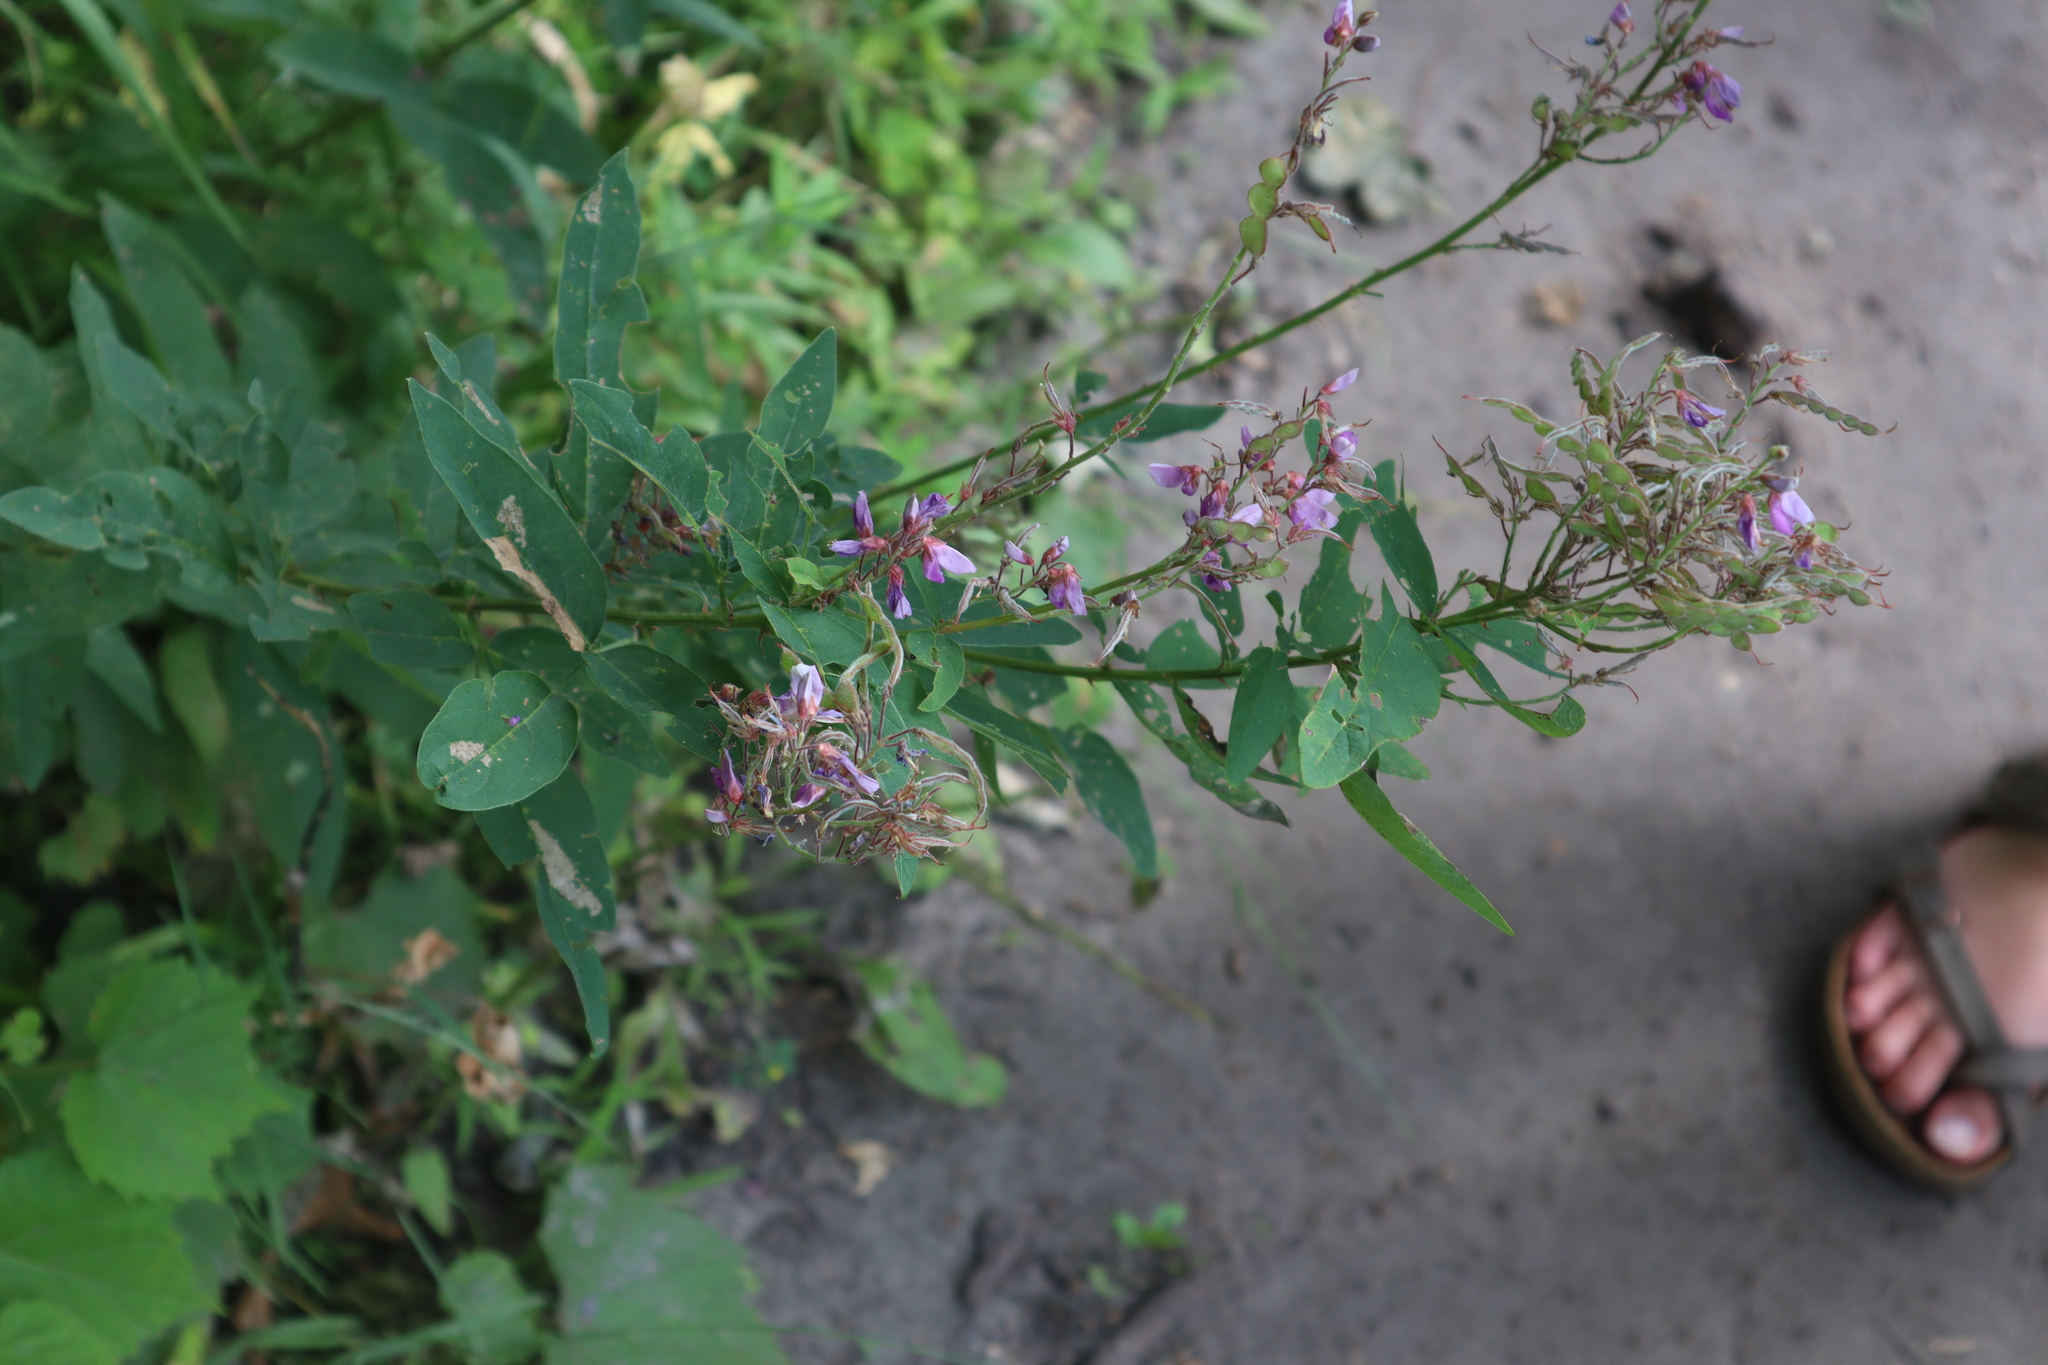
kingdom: Plantae
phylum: Tracheophyta
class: Magnoliopsida
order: Fabales
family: Fabaceae
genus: Desmodium
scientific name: Desmodium canadense
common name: Canada tick-trefoil
